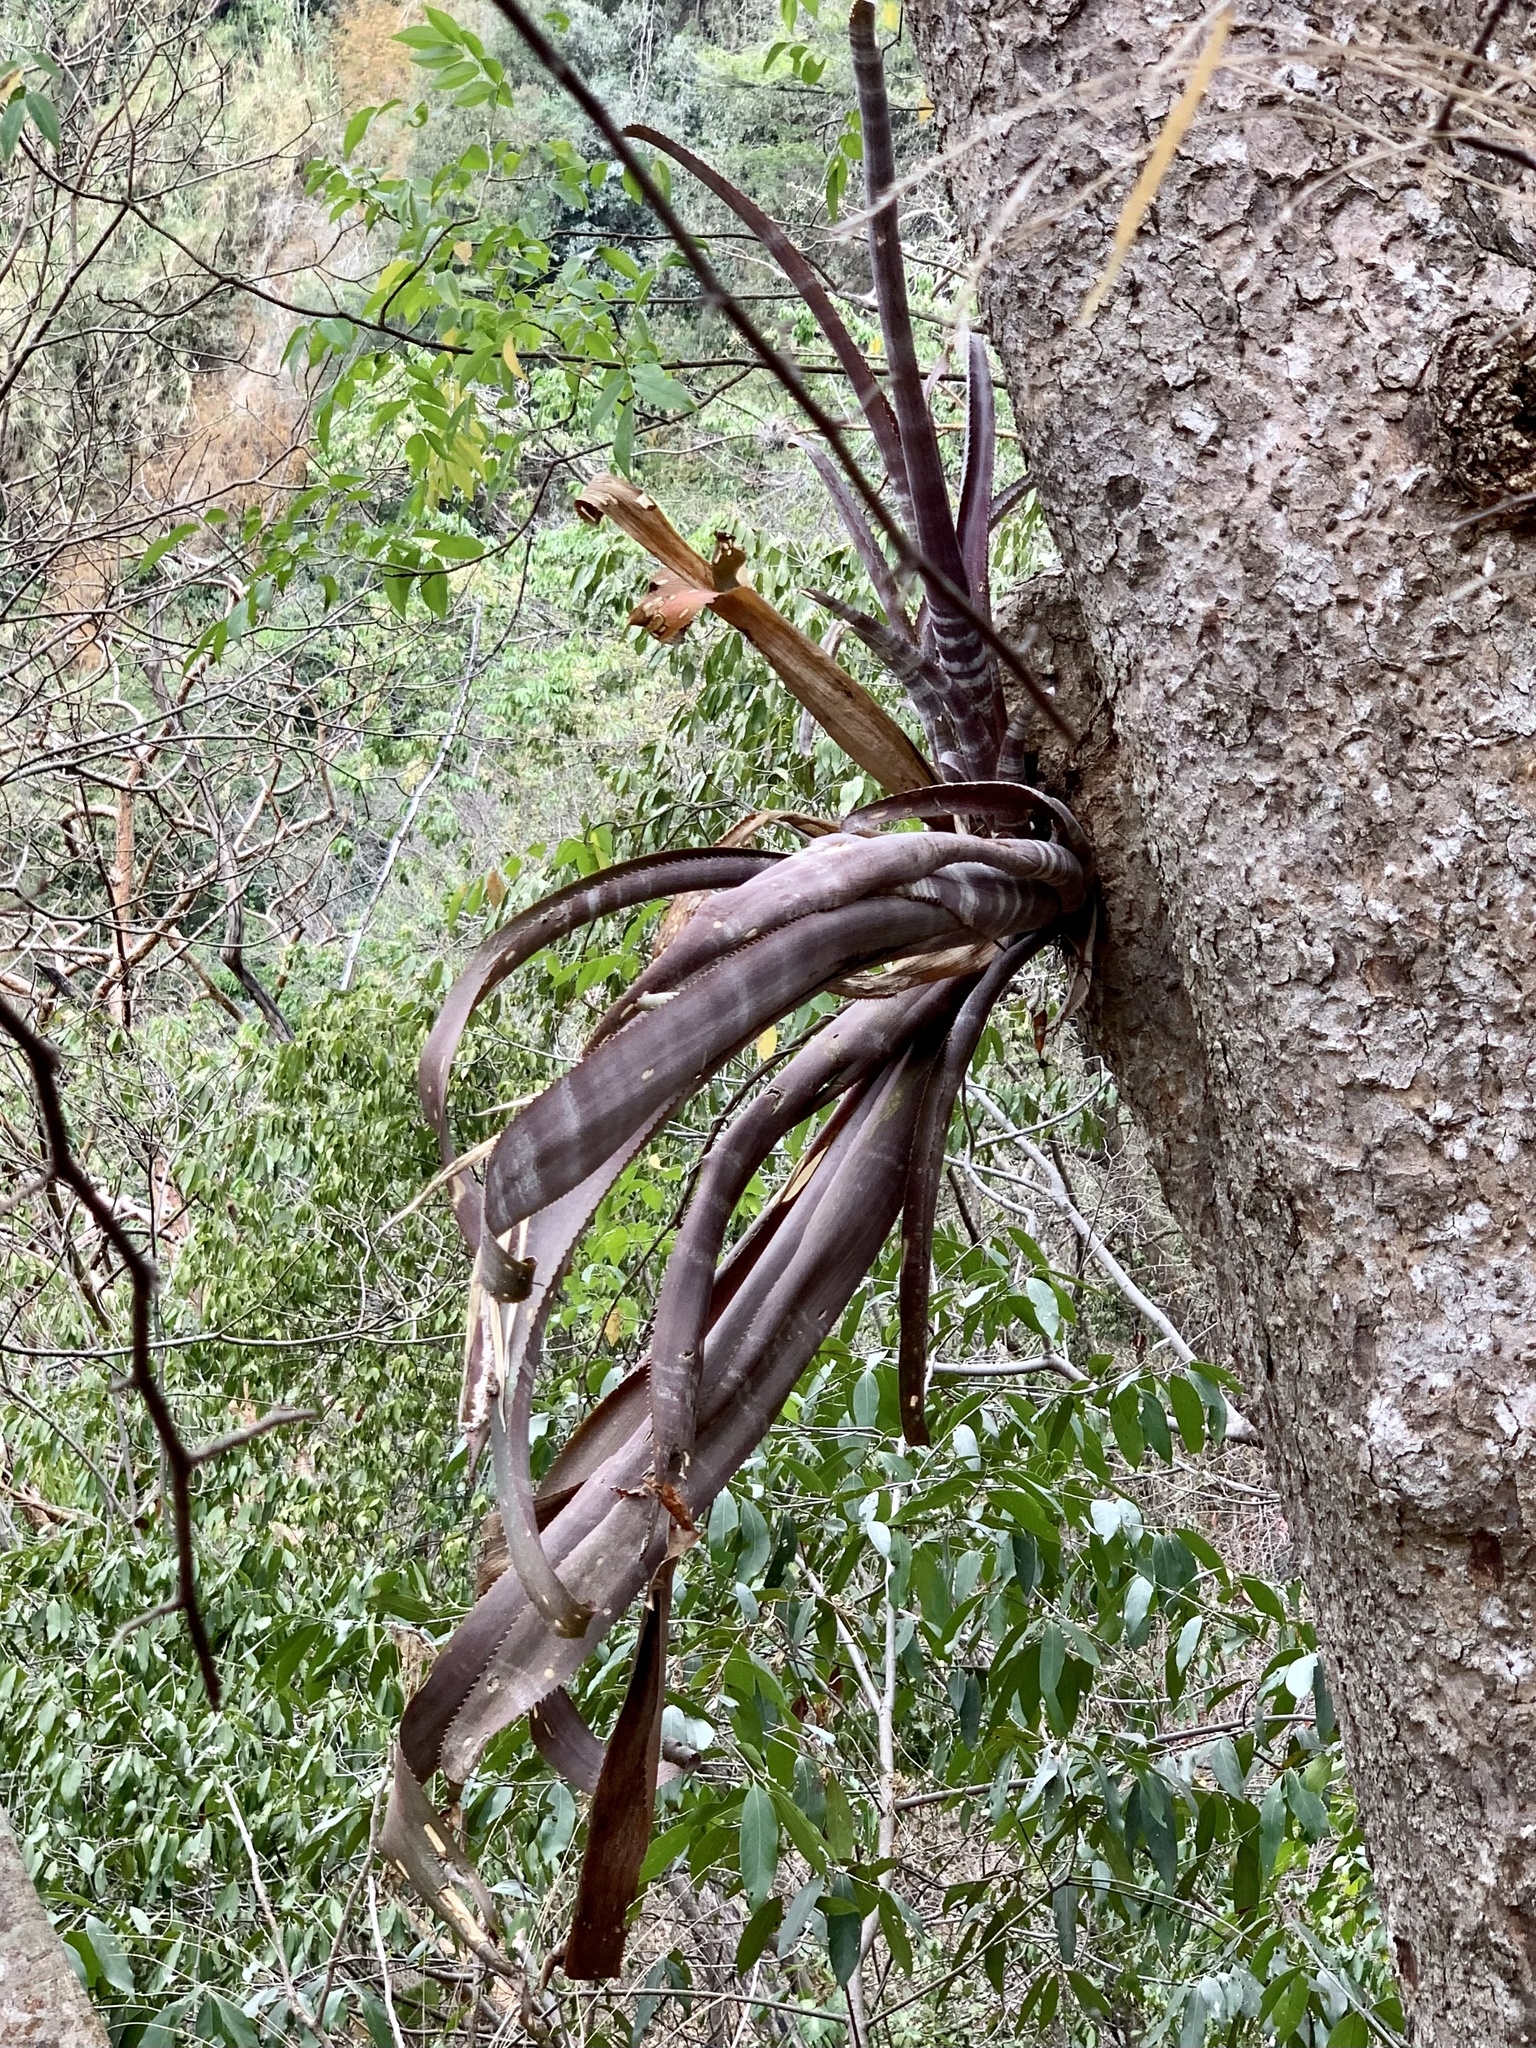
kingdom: Plantae
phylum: Tracheophyta
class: Liliopsida
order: Poales
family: Bromeliaceae
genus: Billbergia
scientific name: Billbergia pallidiflora
